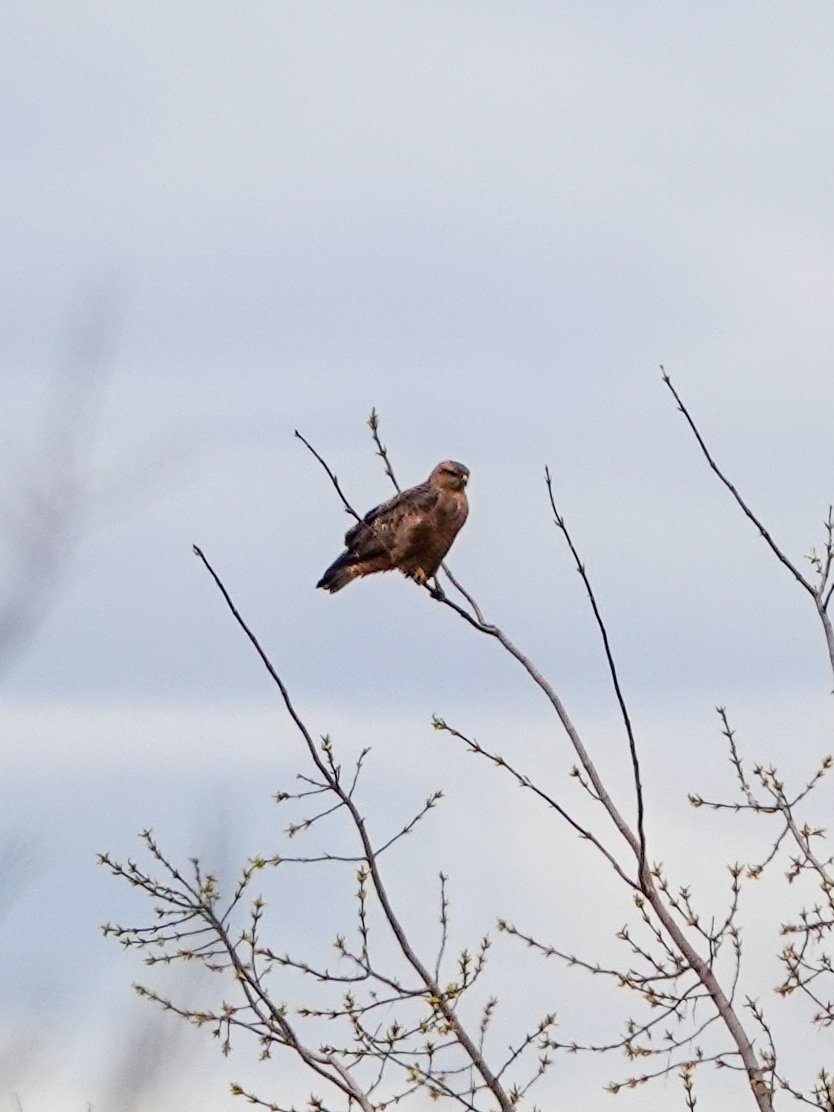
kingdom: Animalia
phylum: Chordata
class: Aves
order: Accipitriformes
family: Accipitridae
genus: Buteo
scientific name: Buteo buteo
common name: Common buzzard
